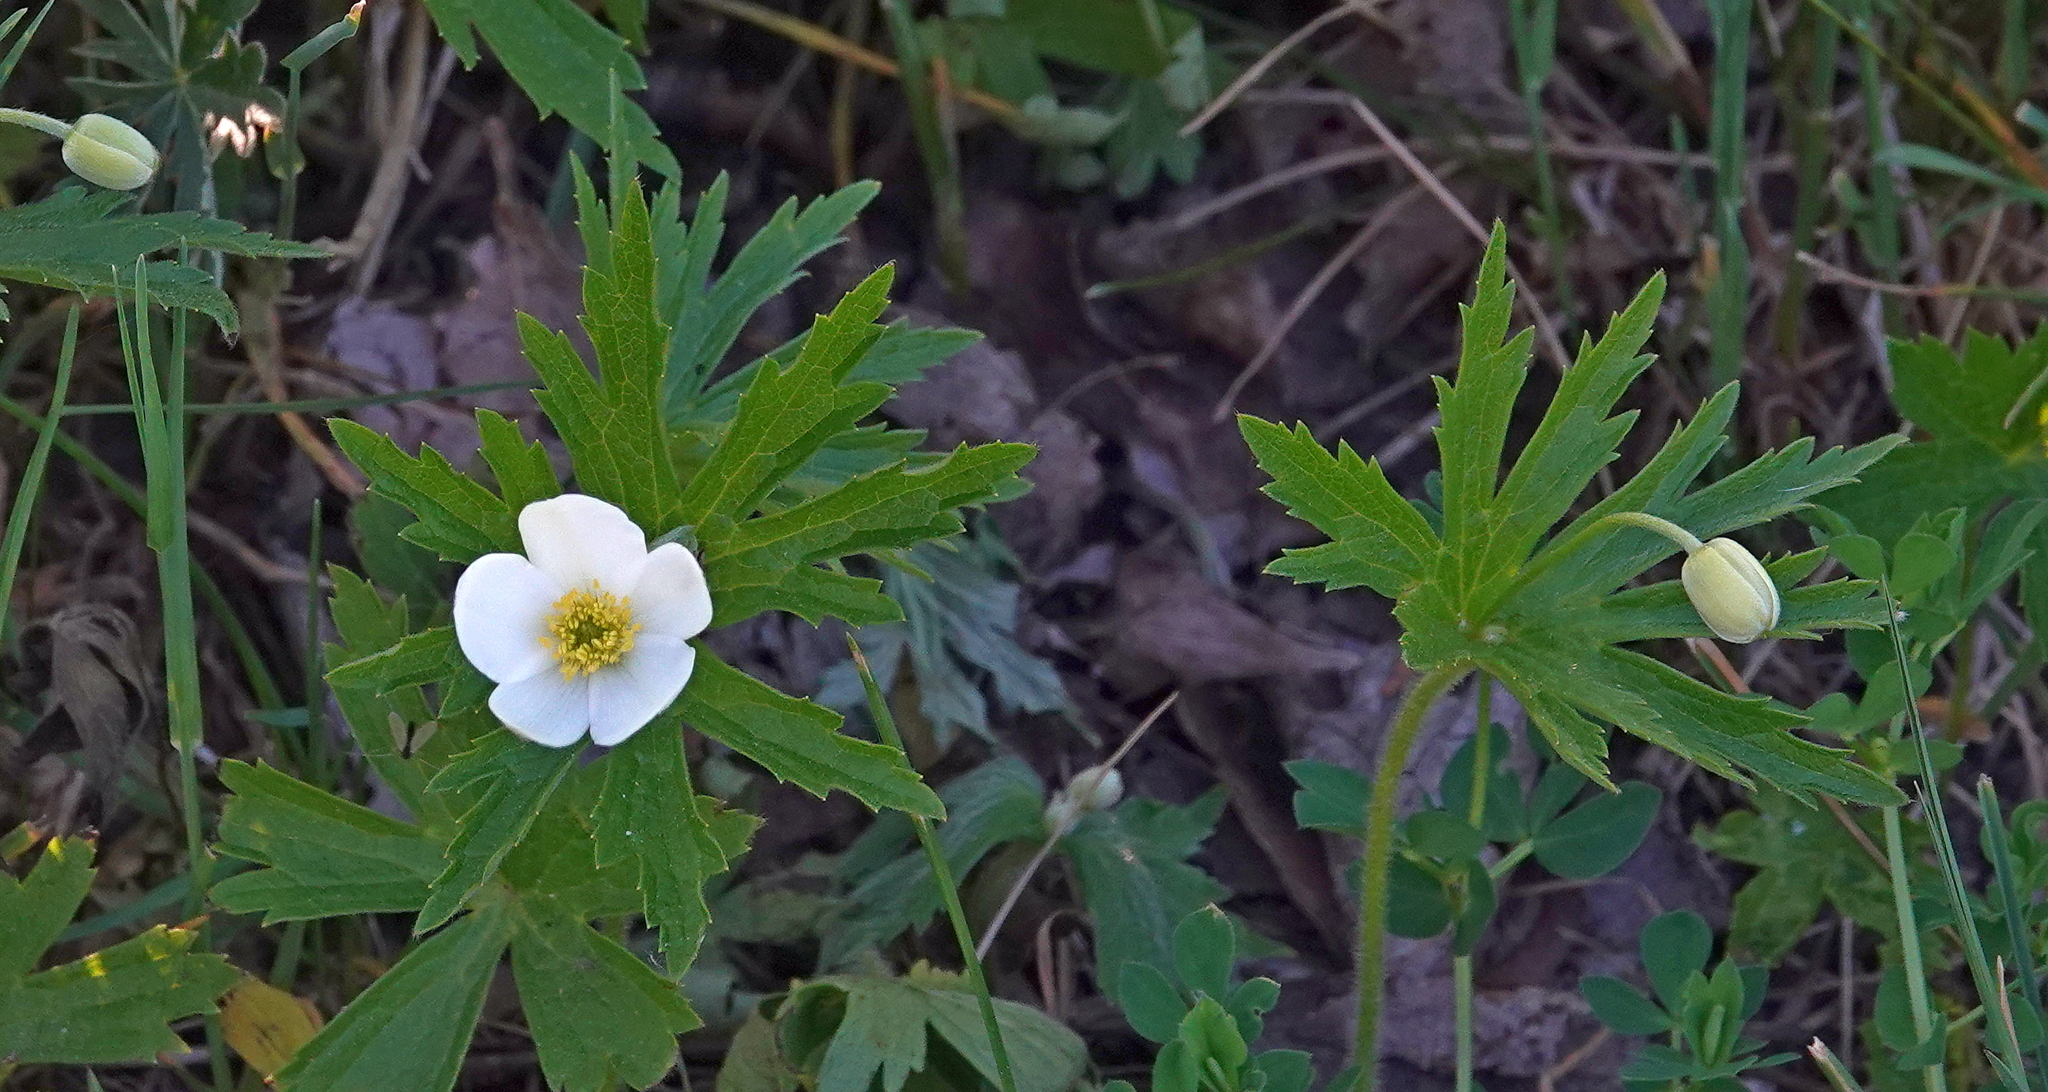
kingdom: Plantae
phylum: Tracheophyta
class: Magnoliopsida
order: Ranunculales
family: Ranunculaceae
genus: Anemonastrum
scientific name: Anemonastrum canadense
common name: Canada anemone
